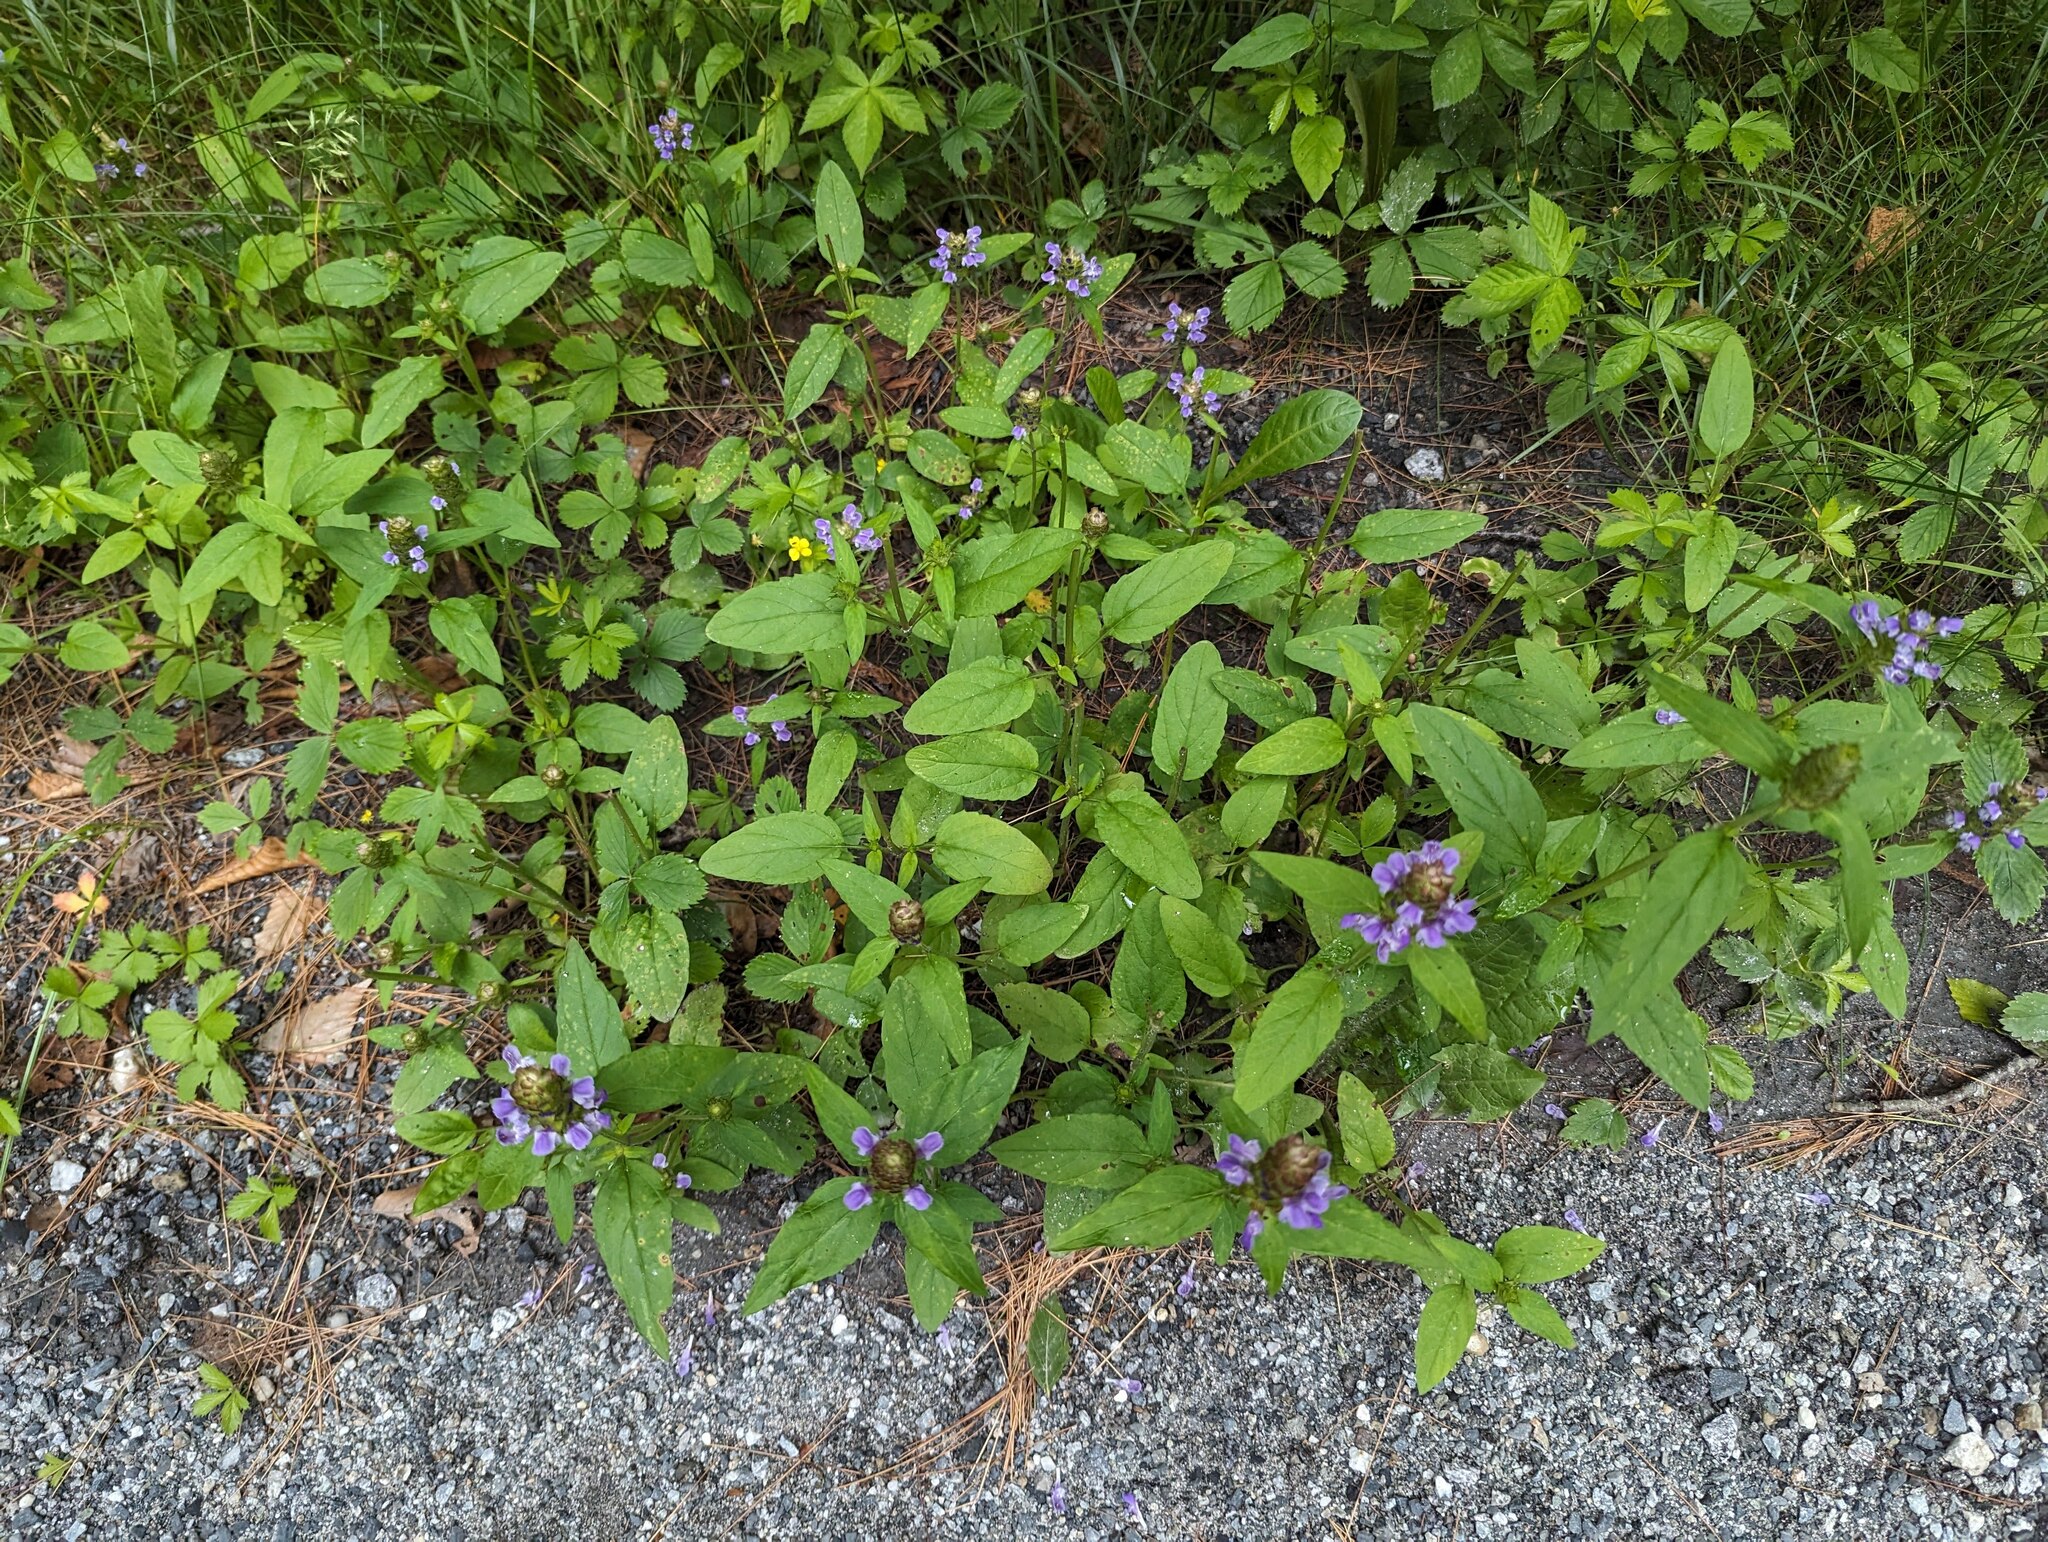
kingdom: Plantae
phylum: Tracheophyta
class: Magnoliopsida
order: Lamiales
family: Lamiaceae
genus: Prunella
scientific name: Prunella vulgaris
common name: Heal-all
